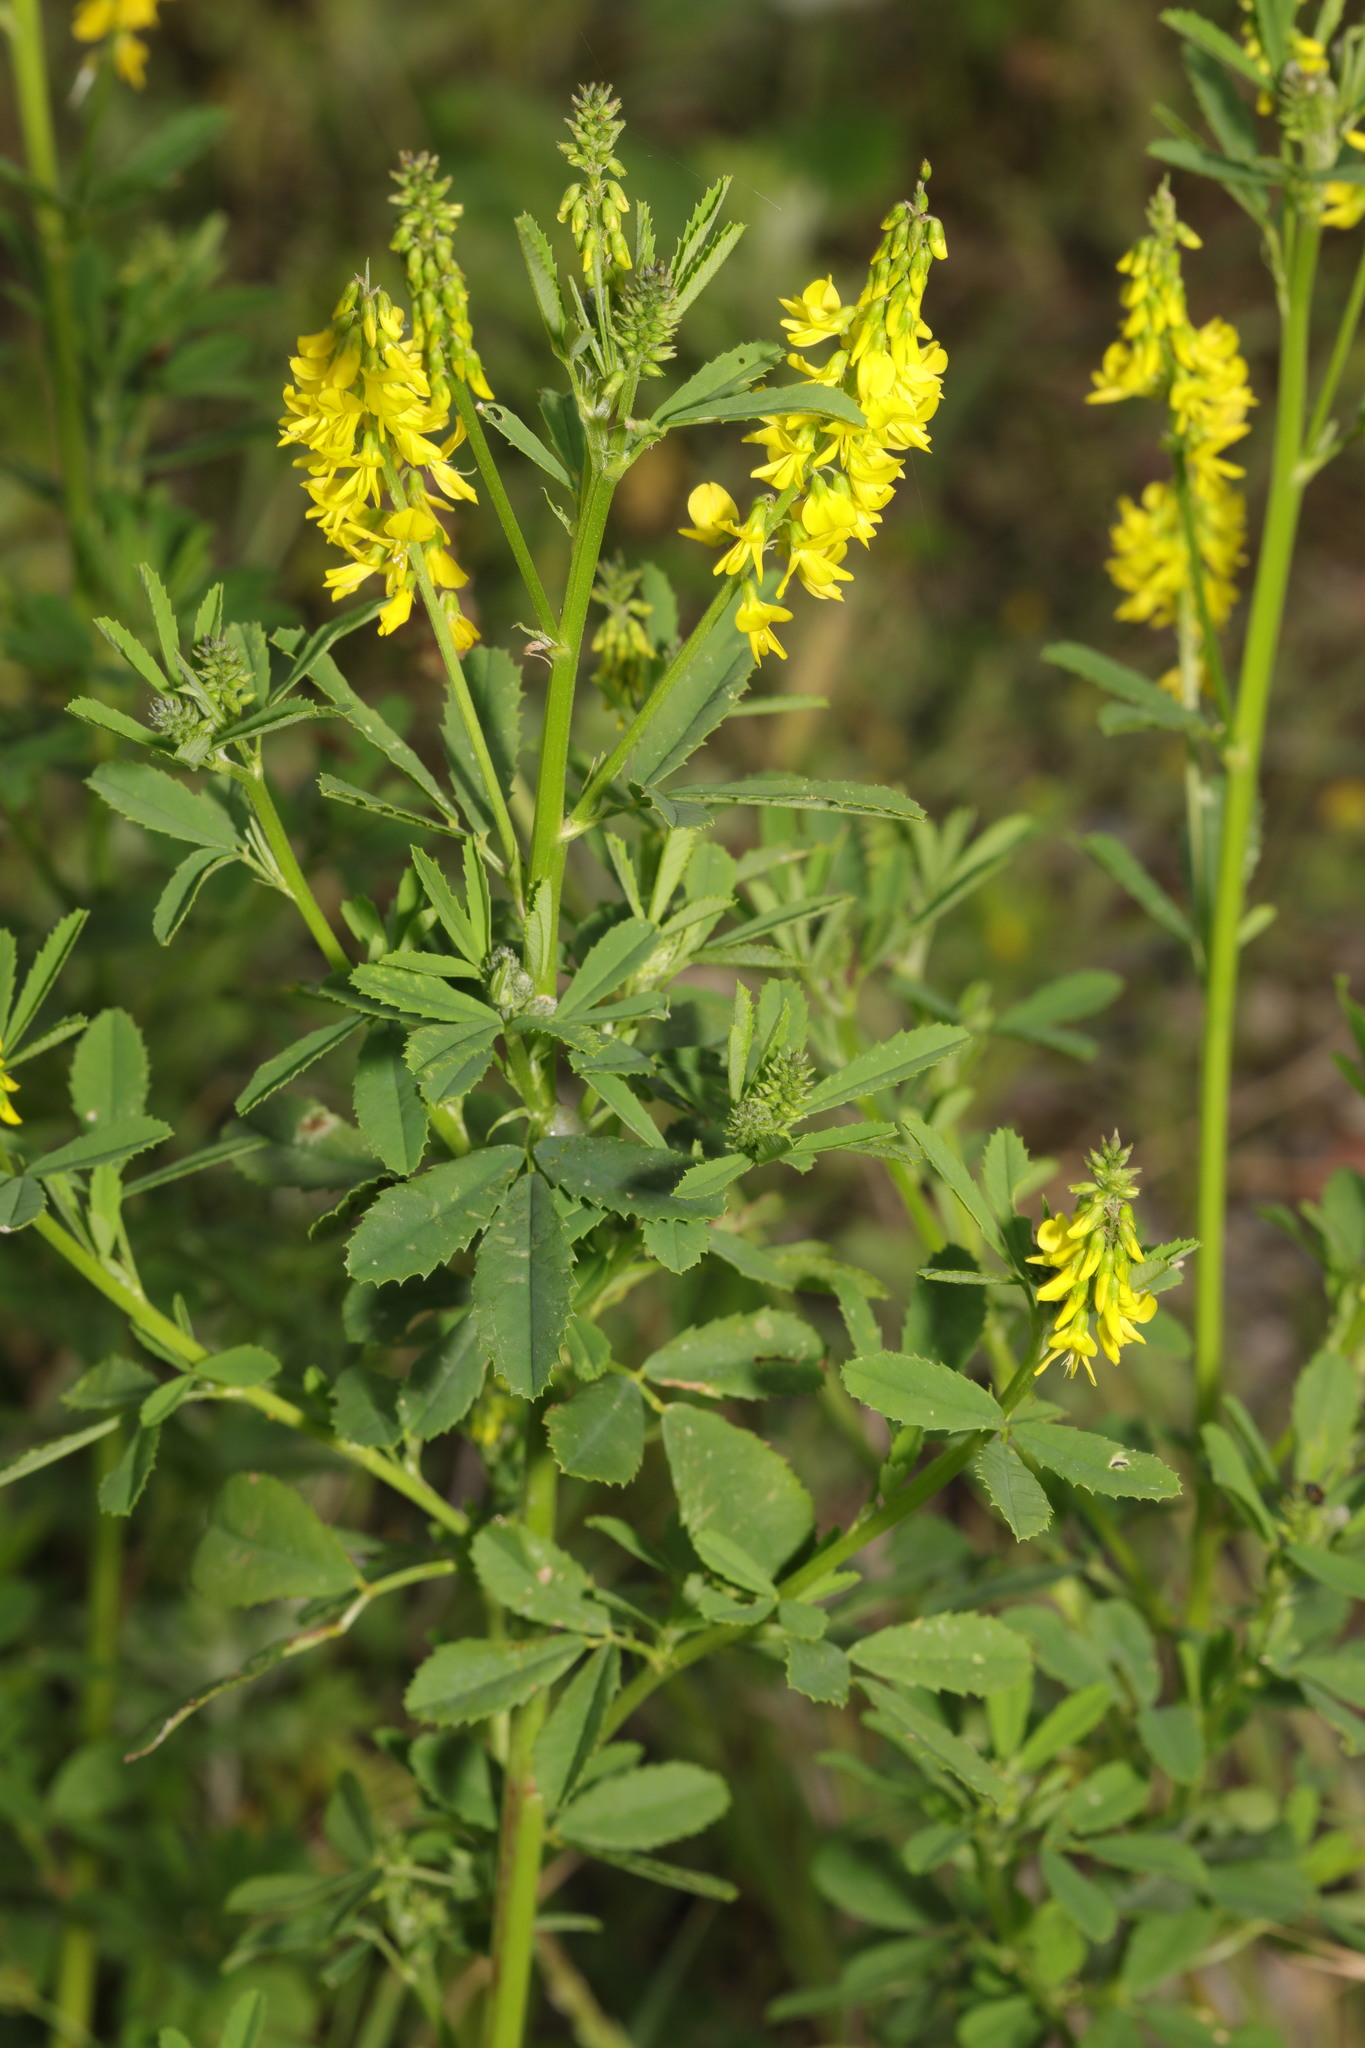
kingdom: Plantae
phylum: Tracheophyta
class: Magnoliopsida
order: Fabales
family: Fabaceae
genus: Melilotus
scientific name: Melilotus officinalis
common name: Sweetclover
